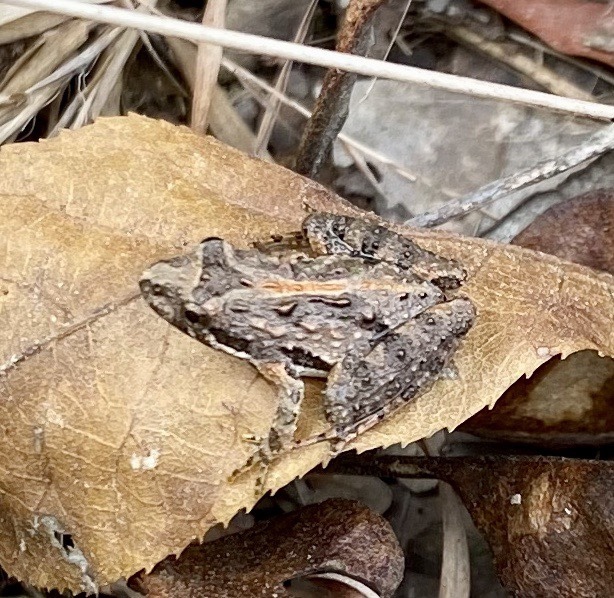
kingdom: Animalia
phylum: Chordata
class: Amphibia
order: Anura
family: Hylidae
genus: Acris
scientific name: Acris gryllus
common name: Southern cricket frog
